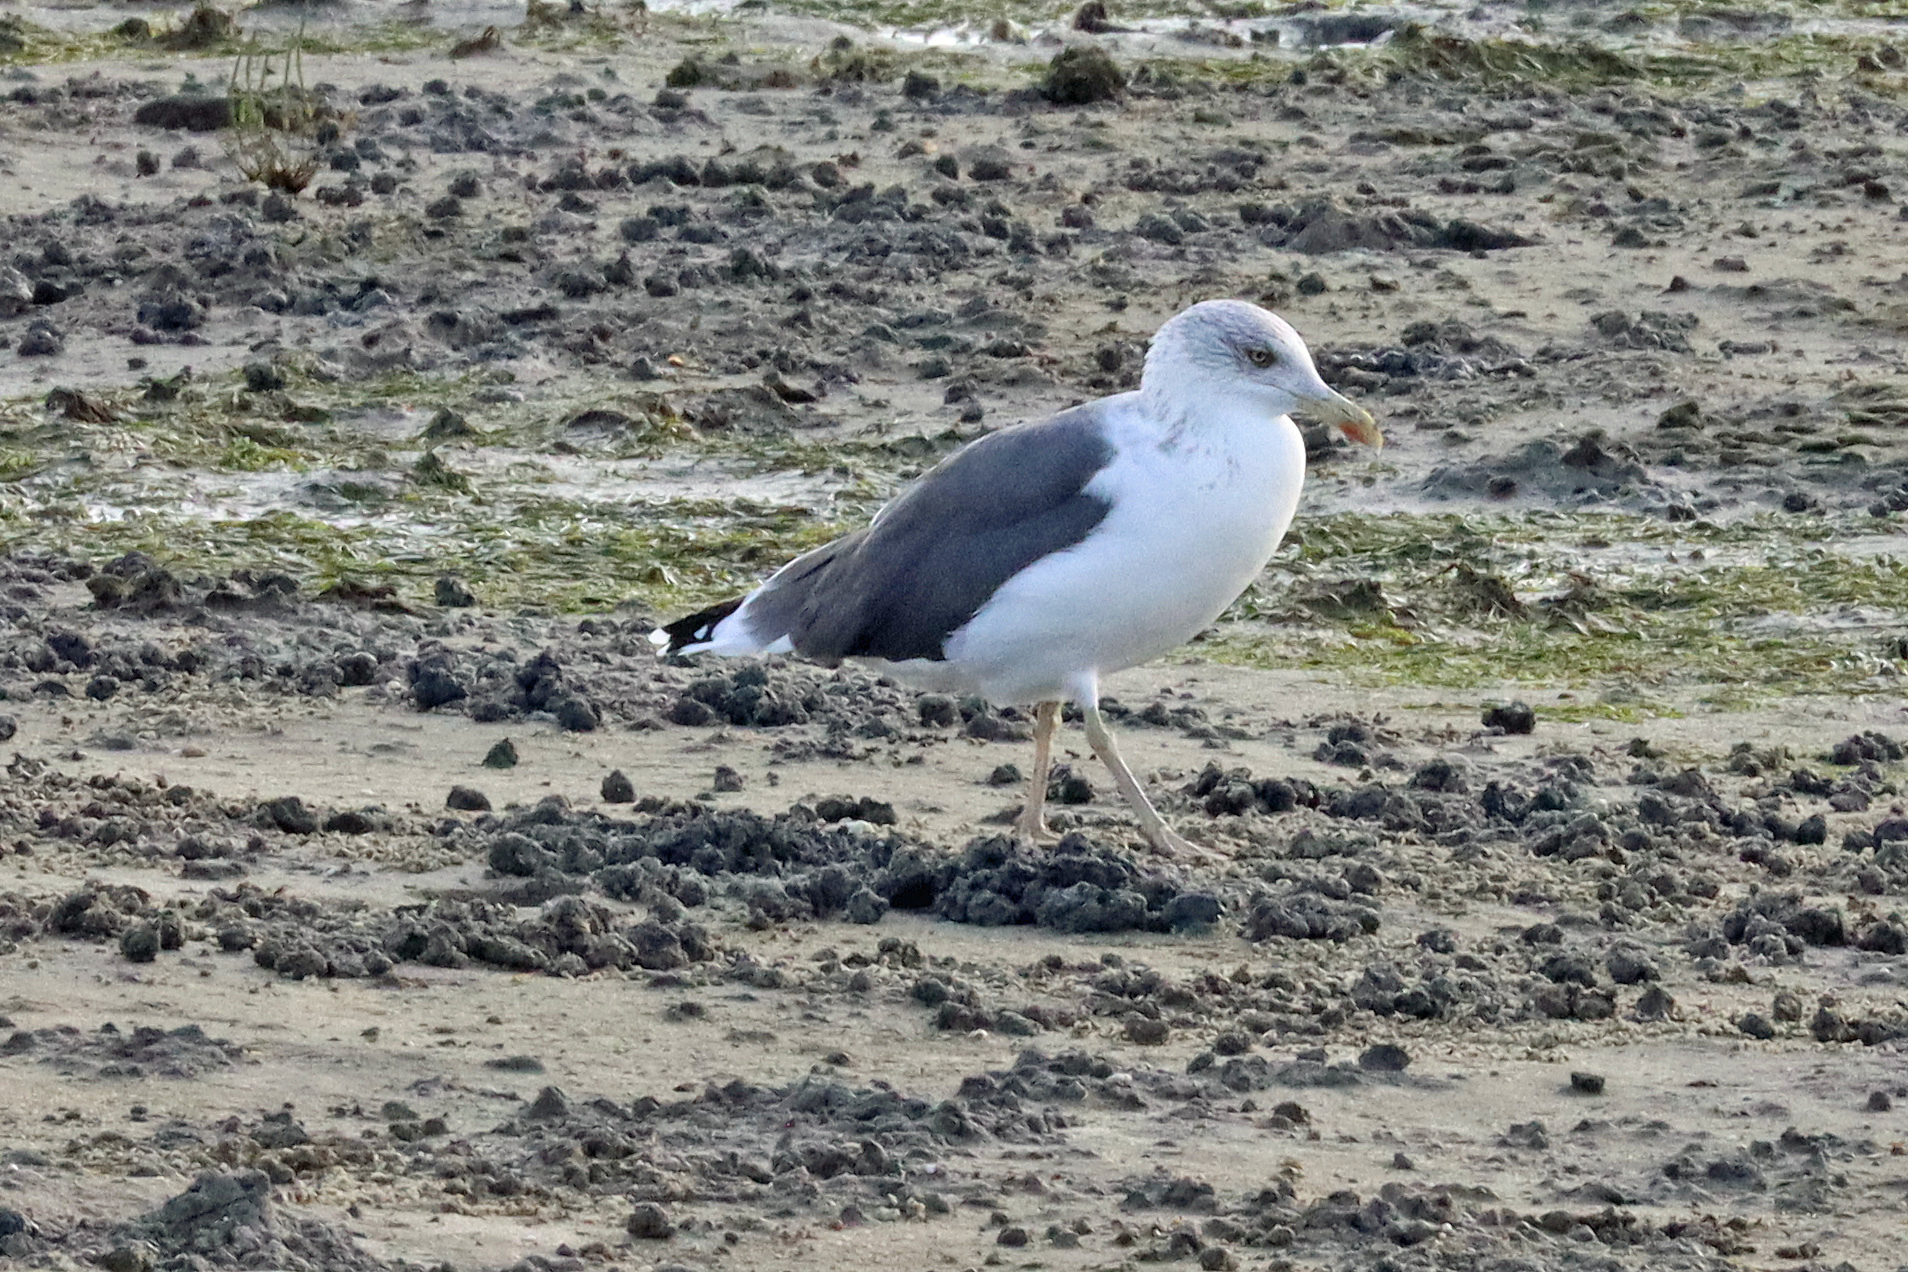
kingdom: Animalia
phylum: Chordata
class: Aves
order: Charadriiformes
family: Laridae
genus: Larus
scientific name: Larus fuscus
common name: Lesser black-backed gull
